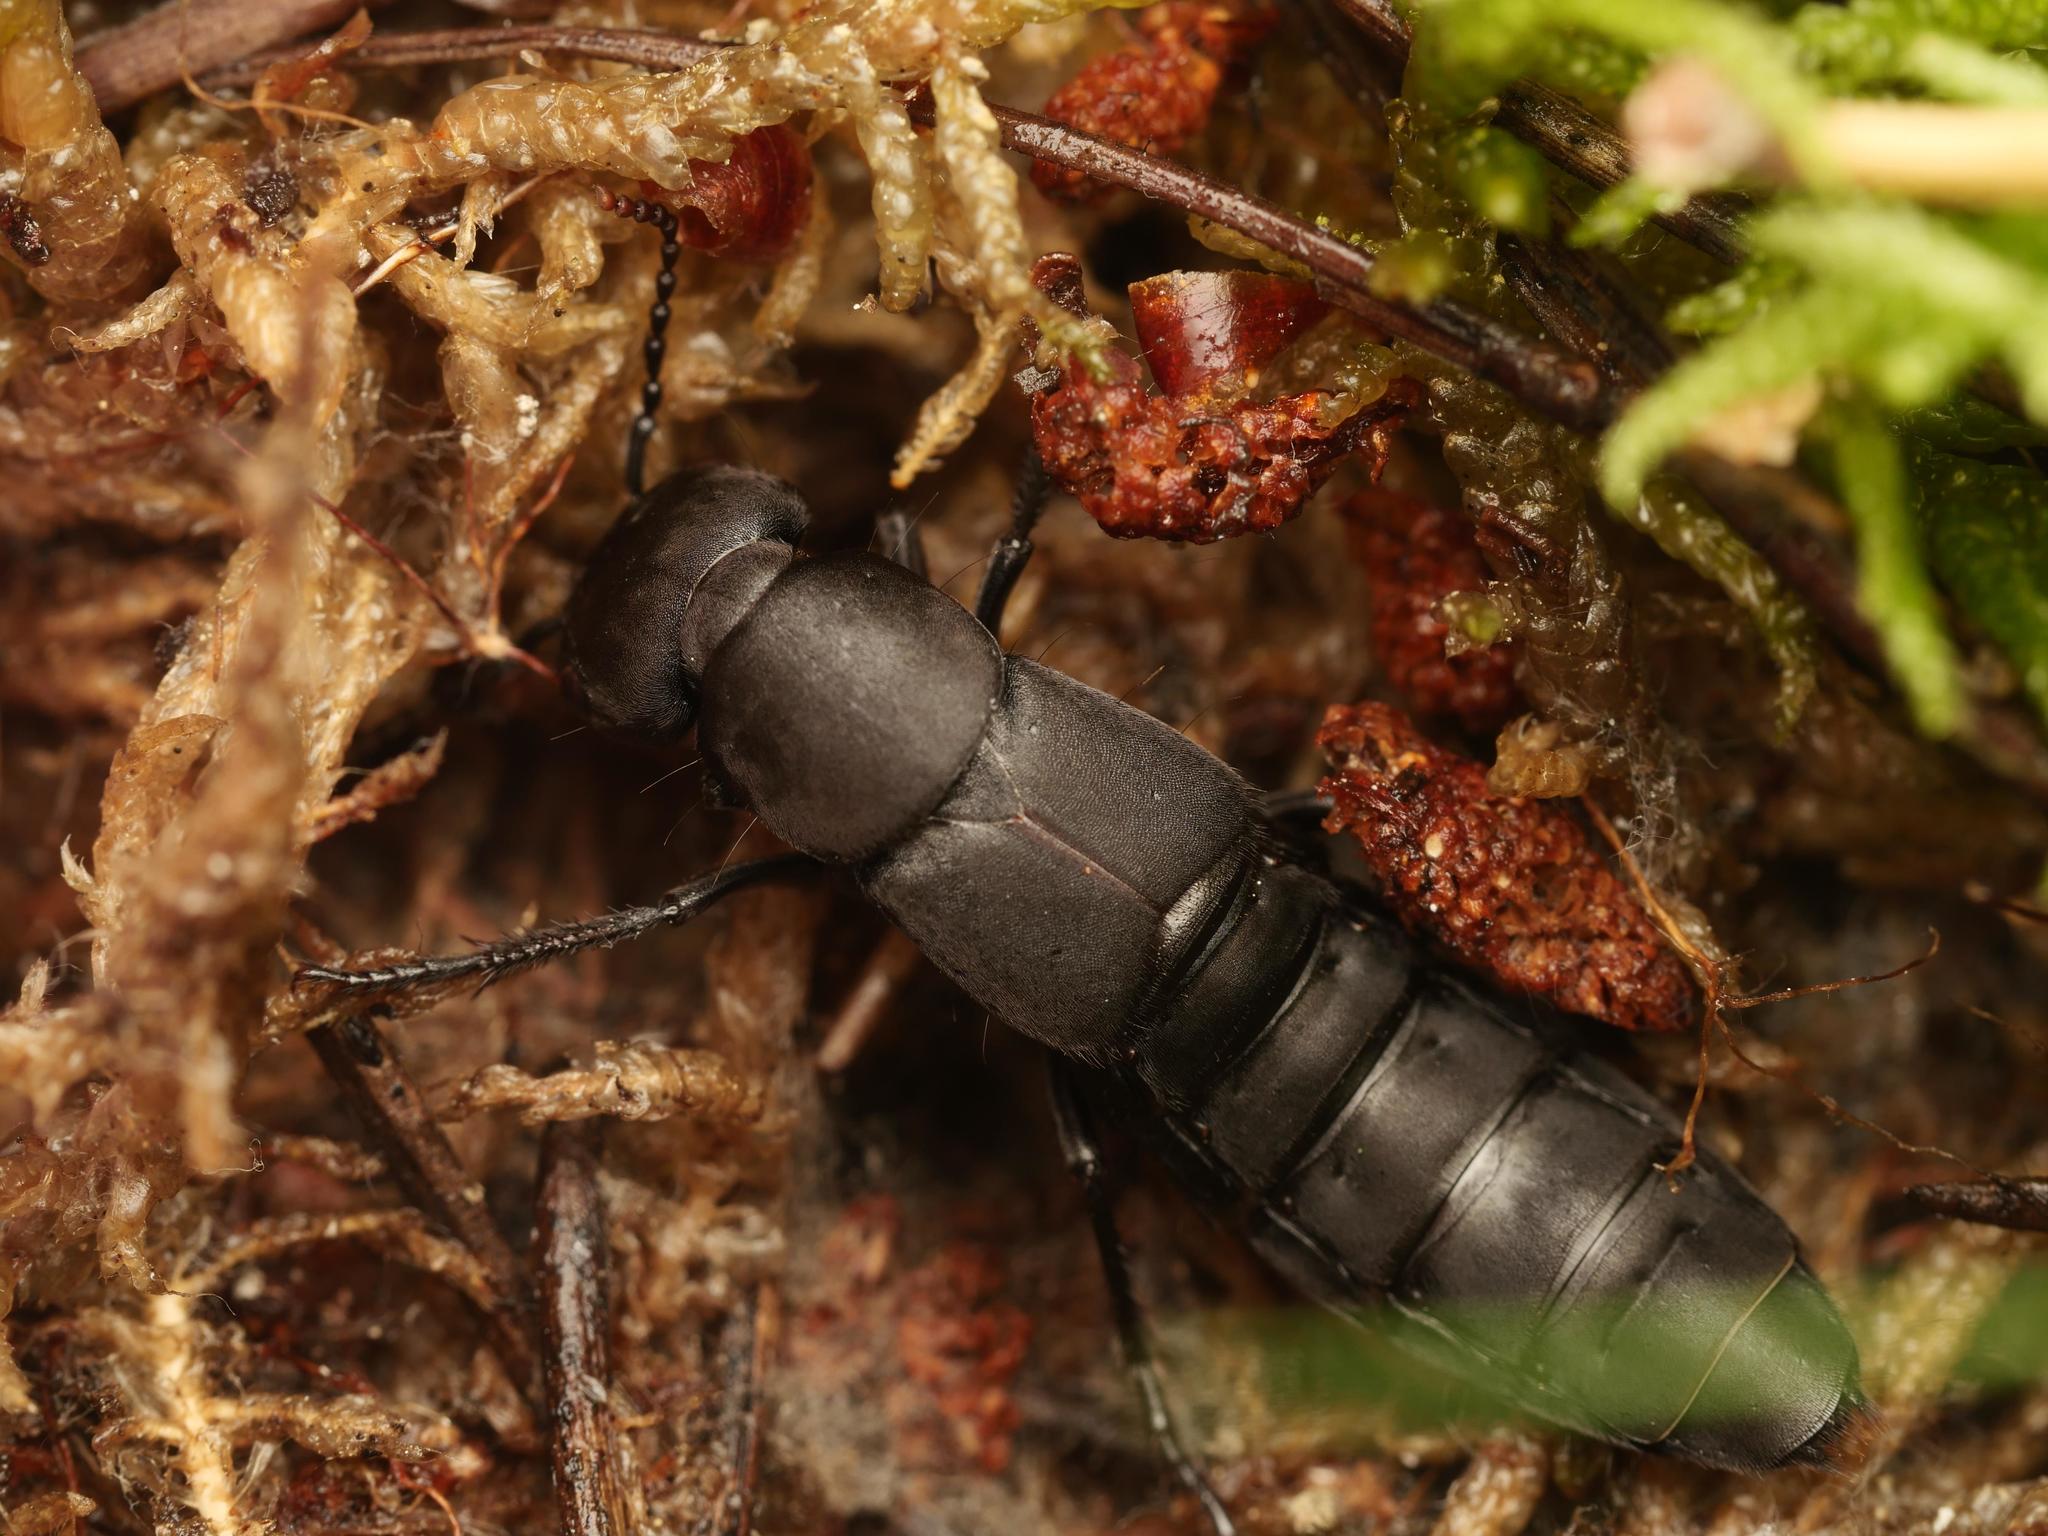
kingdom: Animalia
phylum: Arthropoda
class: Insecta
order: Coleoptera
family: Staphylinidae
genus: Ocypus
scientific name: Ocypus olens
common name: Devil's coach-horse
